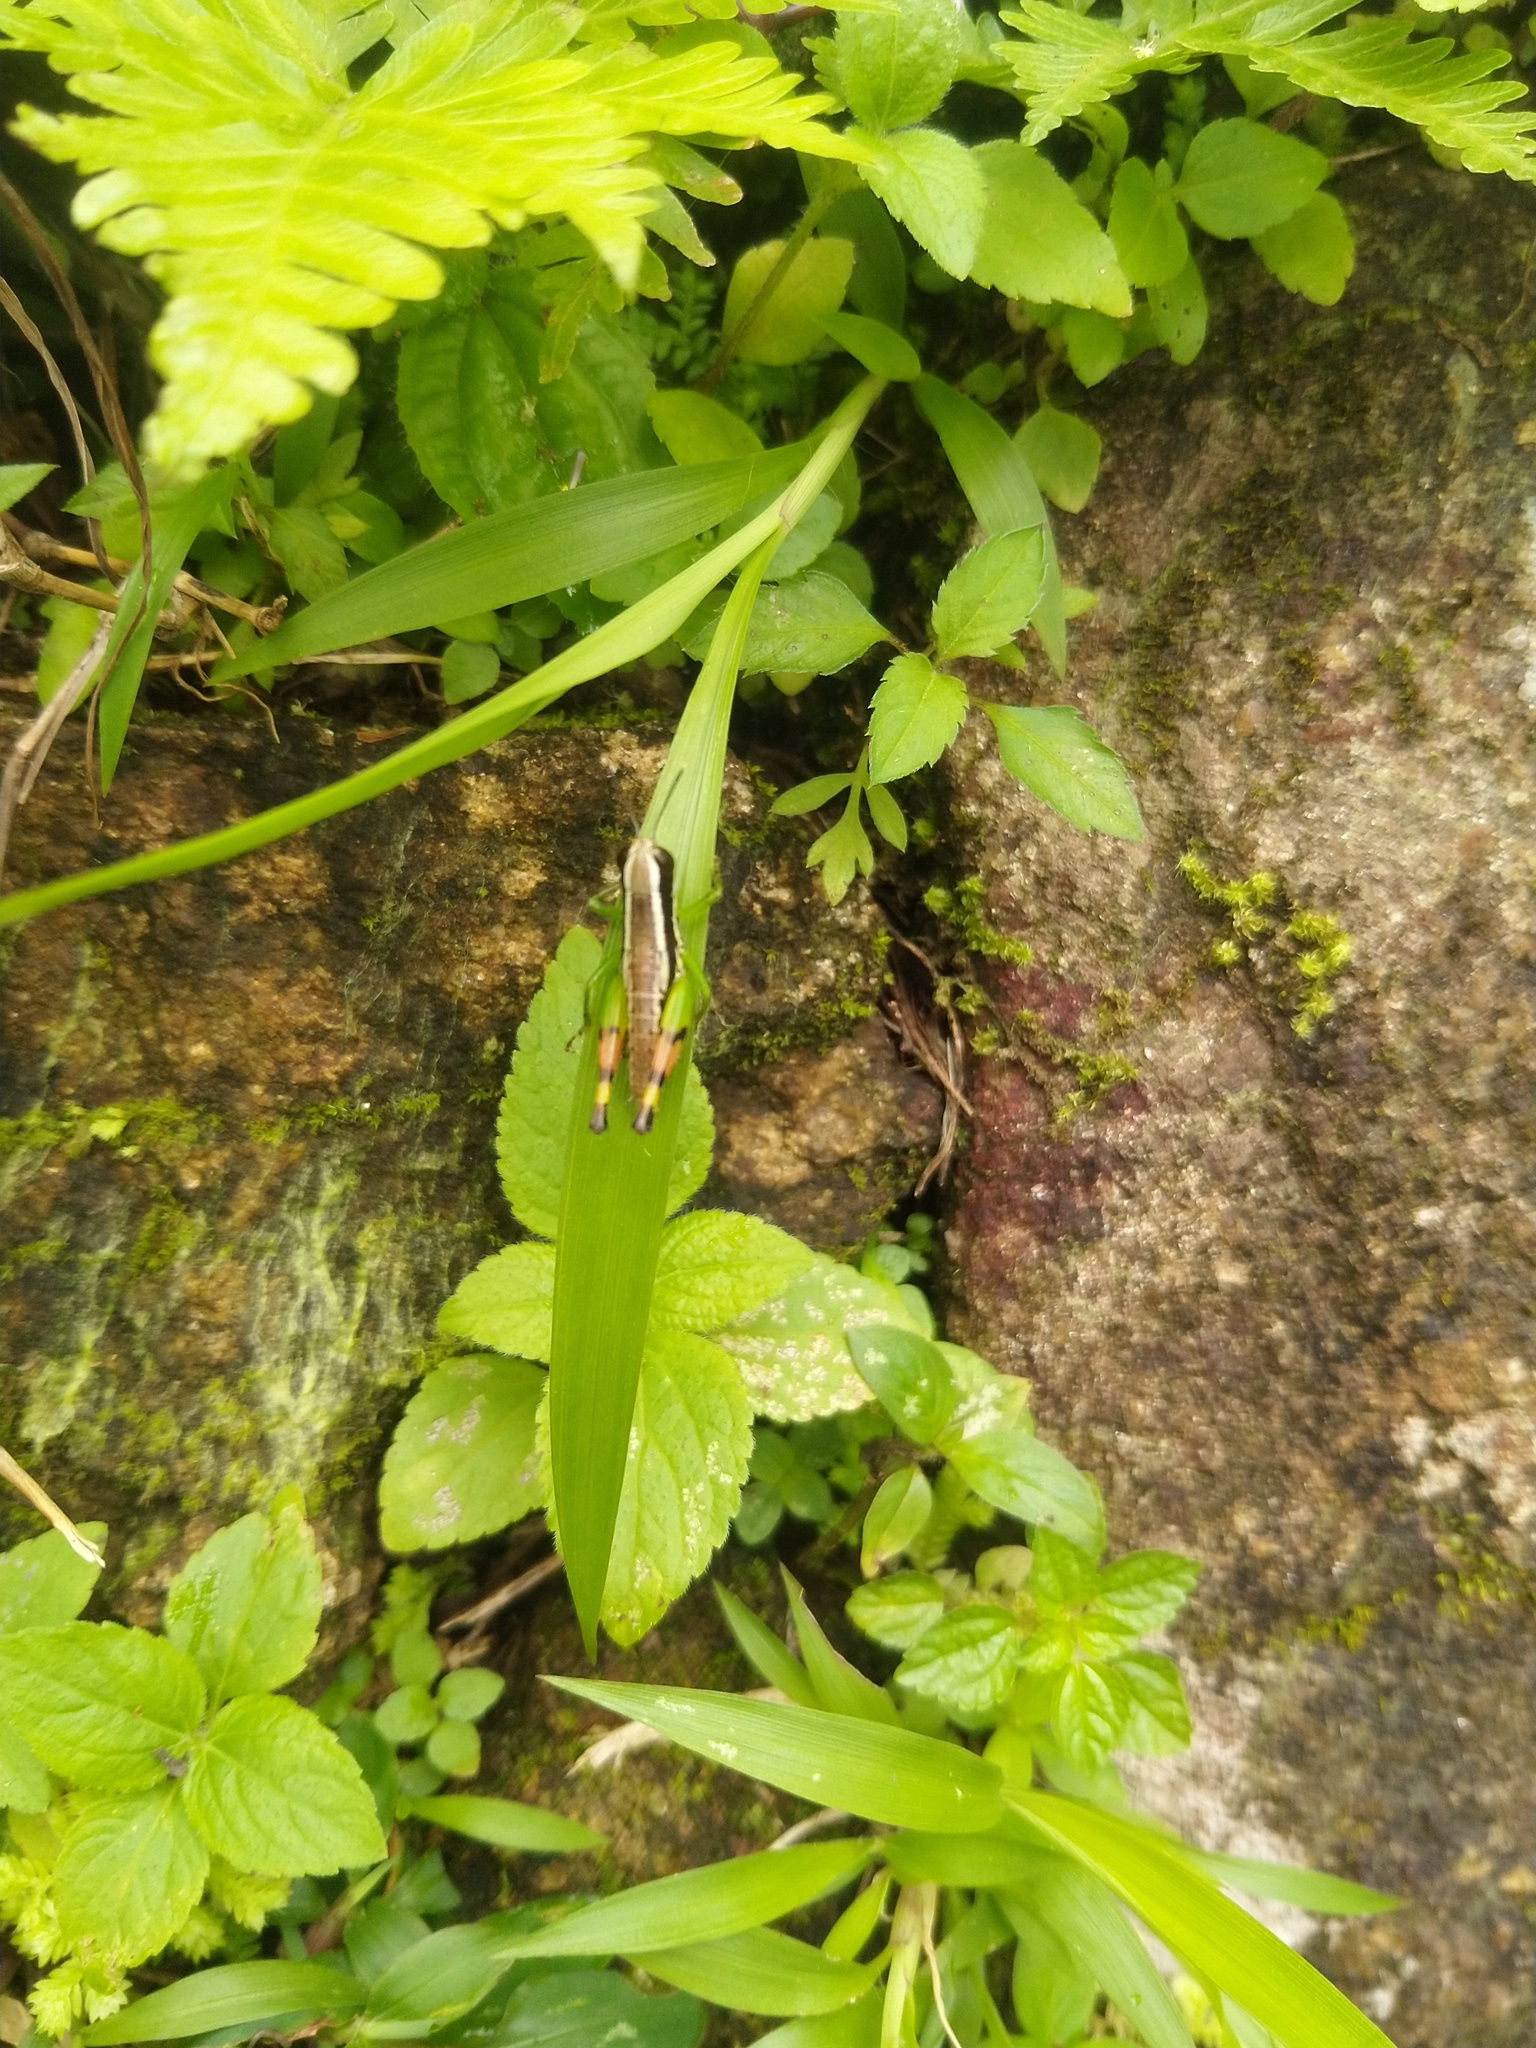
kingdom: Animalia
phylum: Arthropoda
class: Insecta
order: Orthoptera
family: Acrididae
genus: Chitaura
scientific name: Chitaura indica
